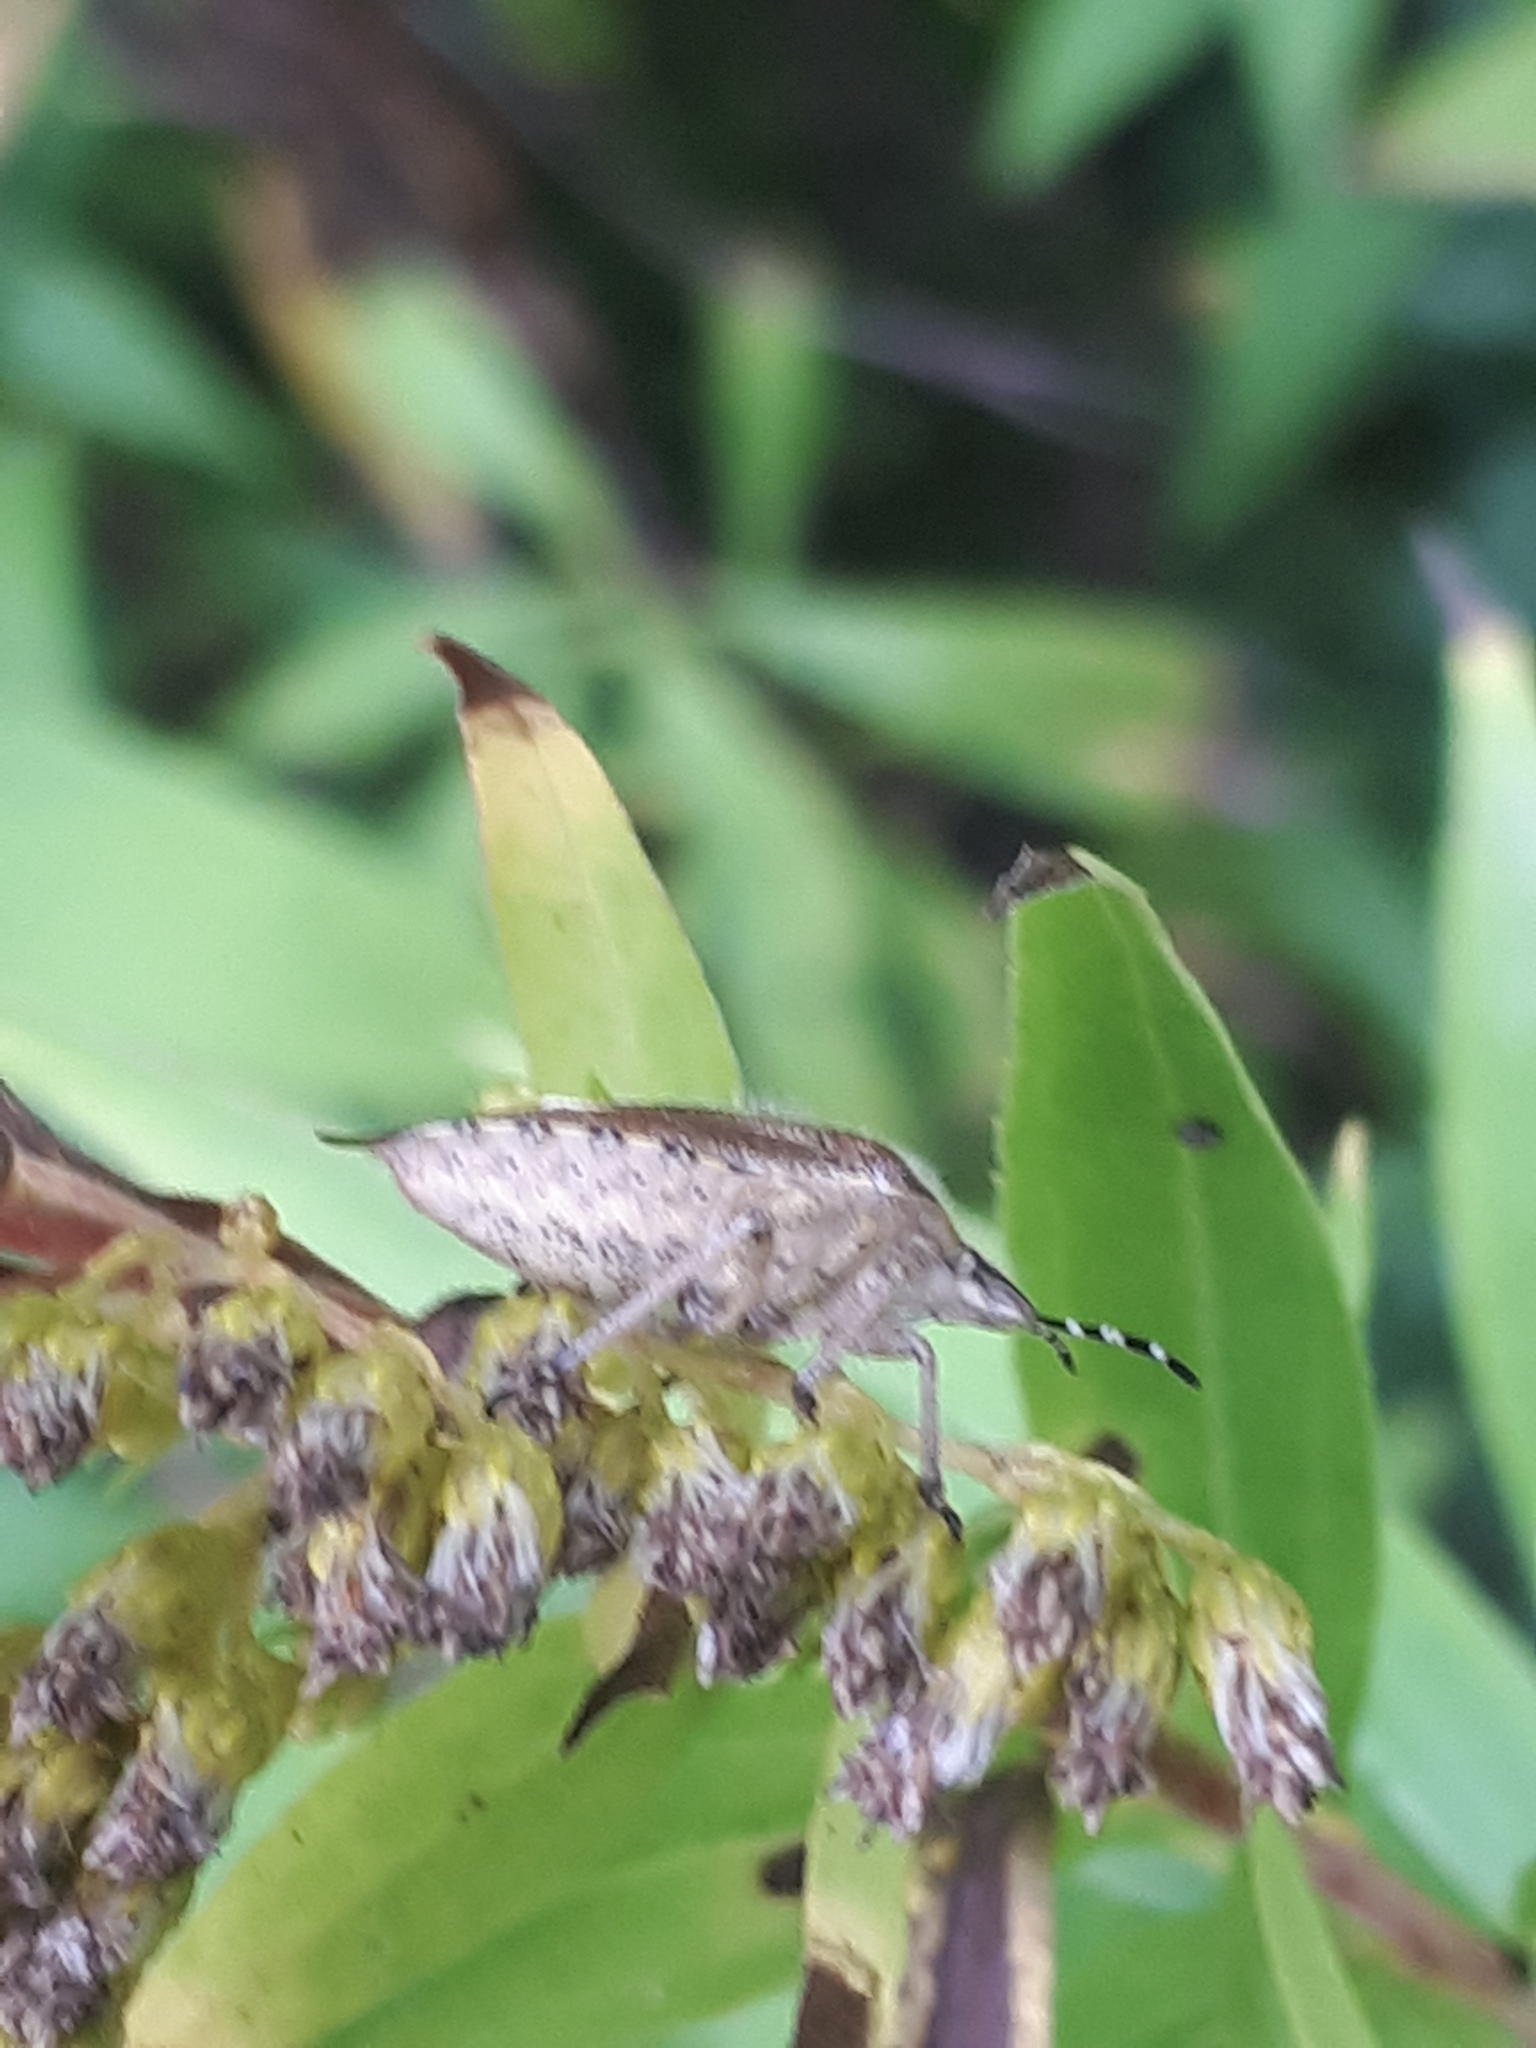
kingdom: Animalia
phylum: Arthropoda
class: Insecta
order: Hemiptera
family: Pentatomidae
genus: Dolycoris
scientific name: Dolycoris baccarum
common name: Sloe bug
